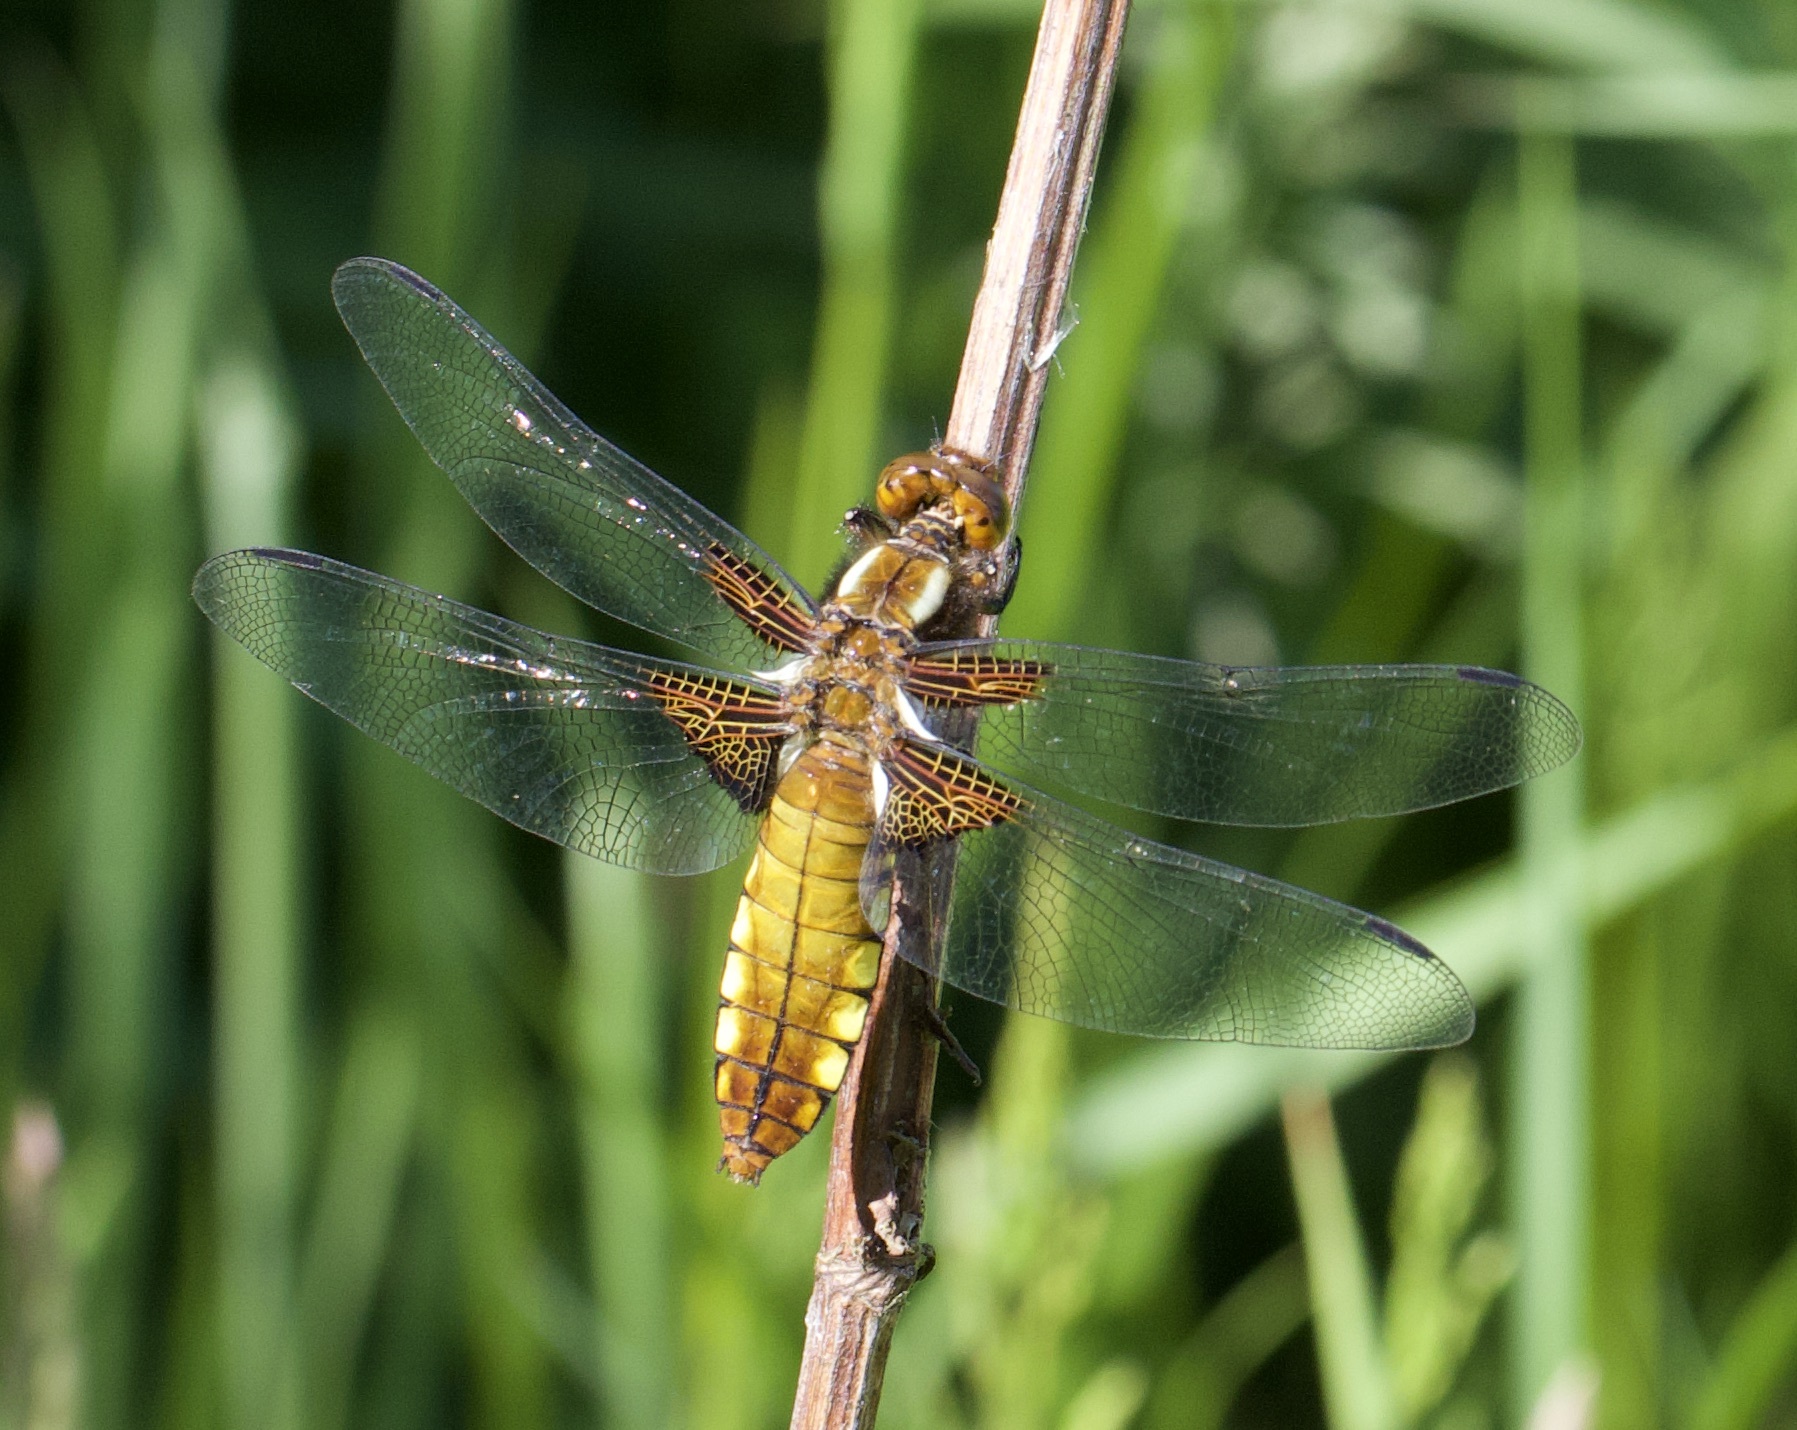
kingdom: Animalia
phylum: Arthropoda
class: Insecta
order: Odonata
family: Libellulidae
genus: Libellula
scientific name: Libellula depressa
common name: Broad-bodied chaser
